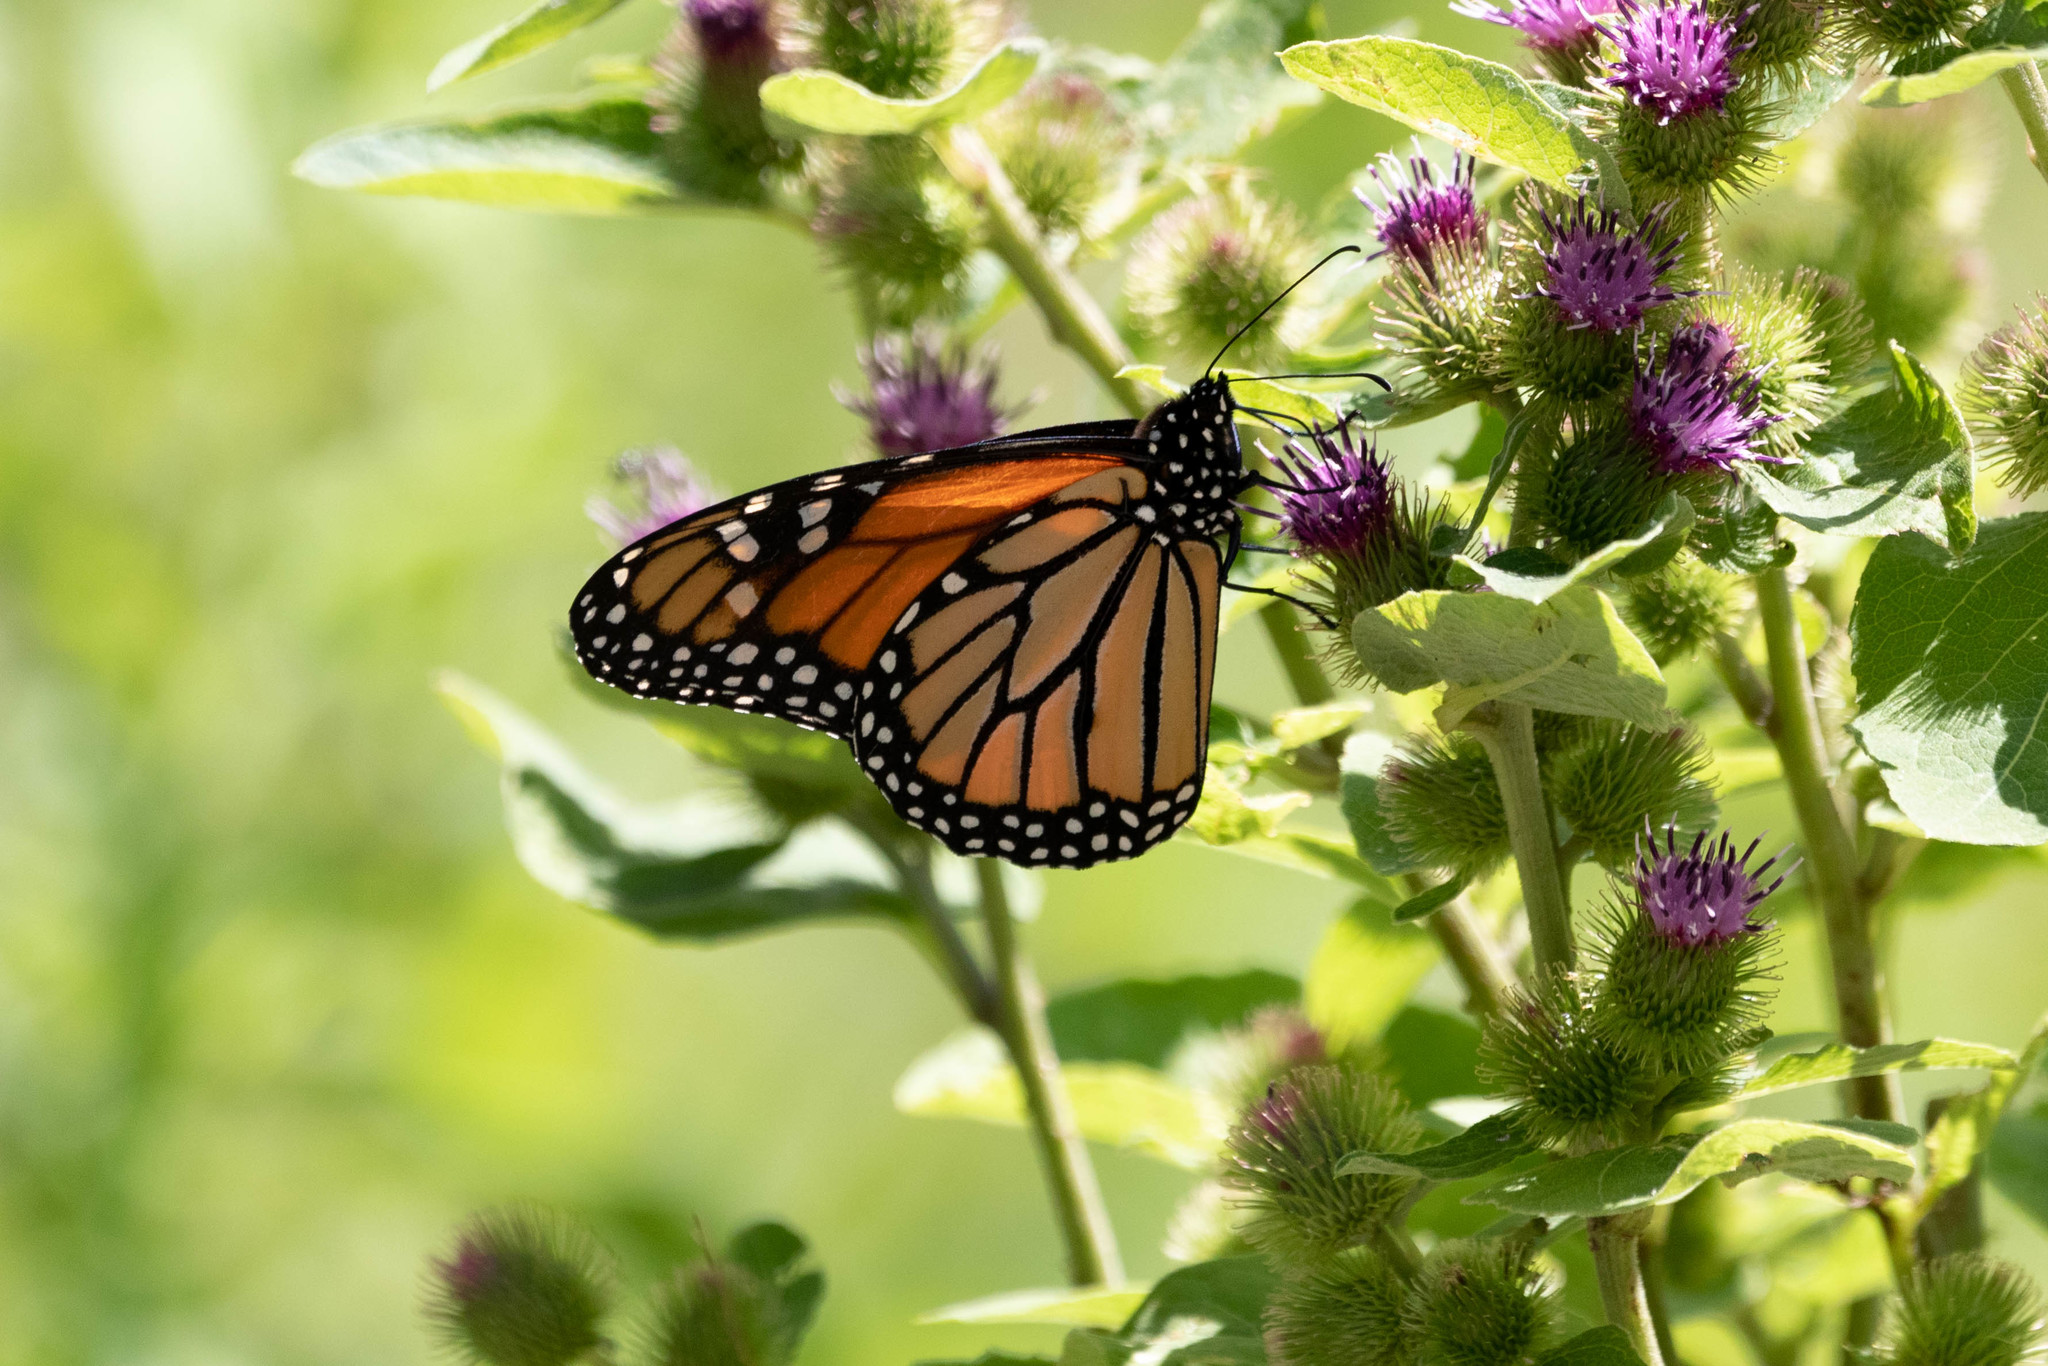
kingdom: Animalia
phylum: Arthropoda
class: Insecta
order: Lepidoptera
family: Nymphalidae
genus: Danaus
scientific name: Danaus plexippus
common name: Monarch
